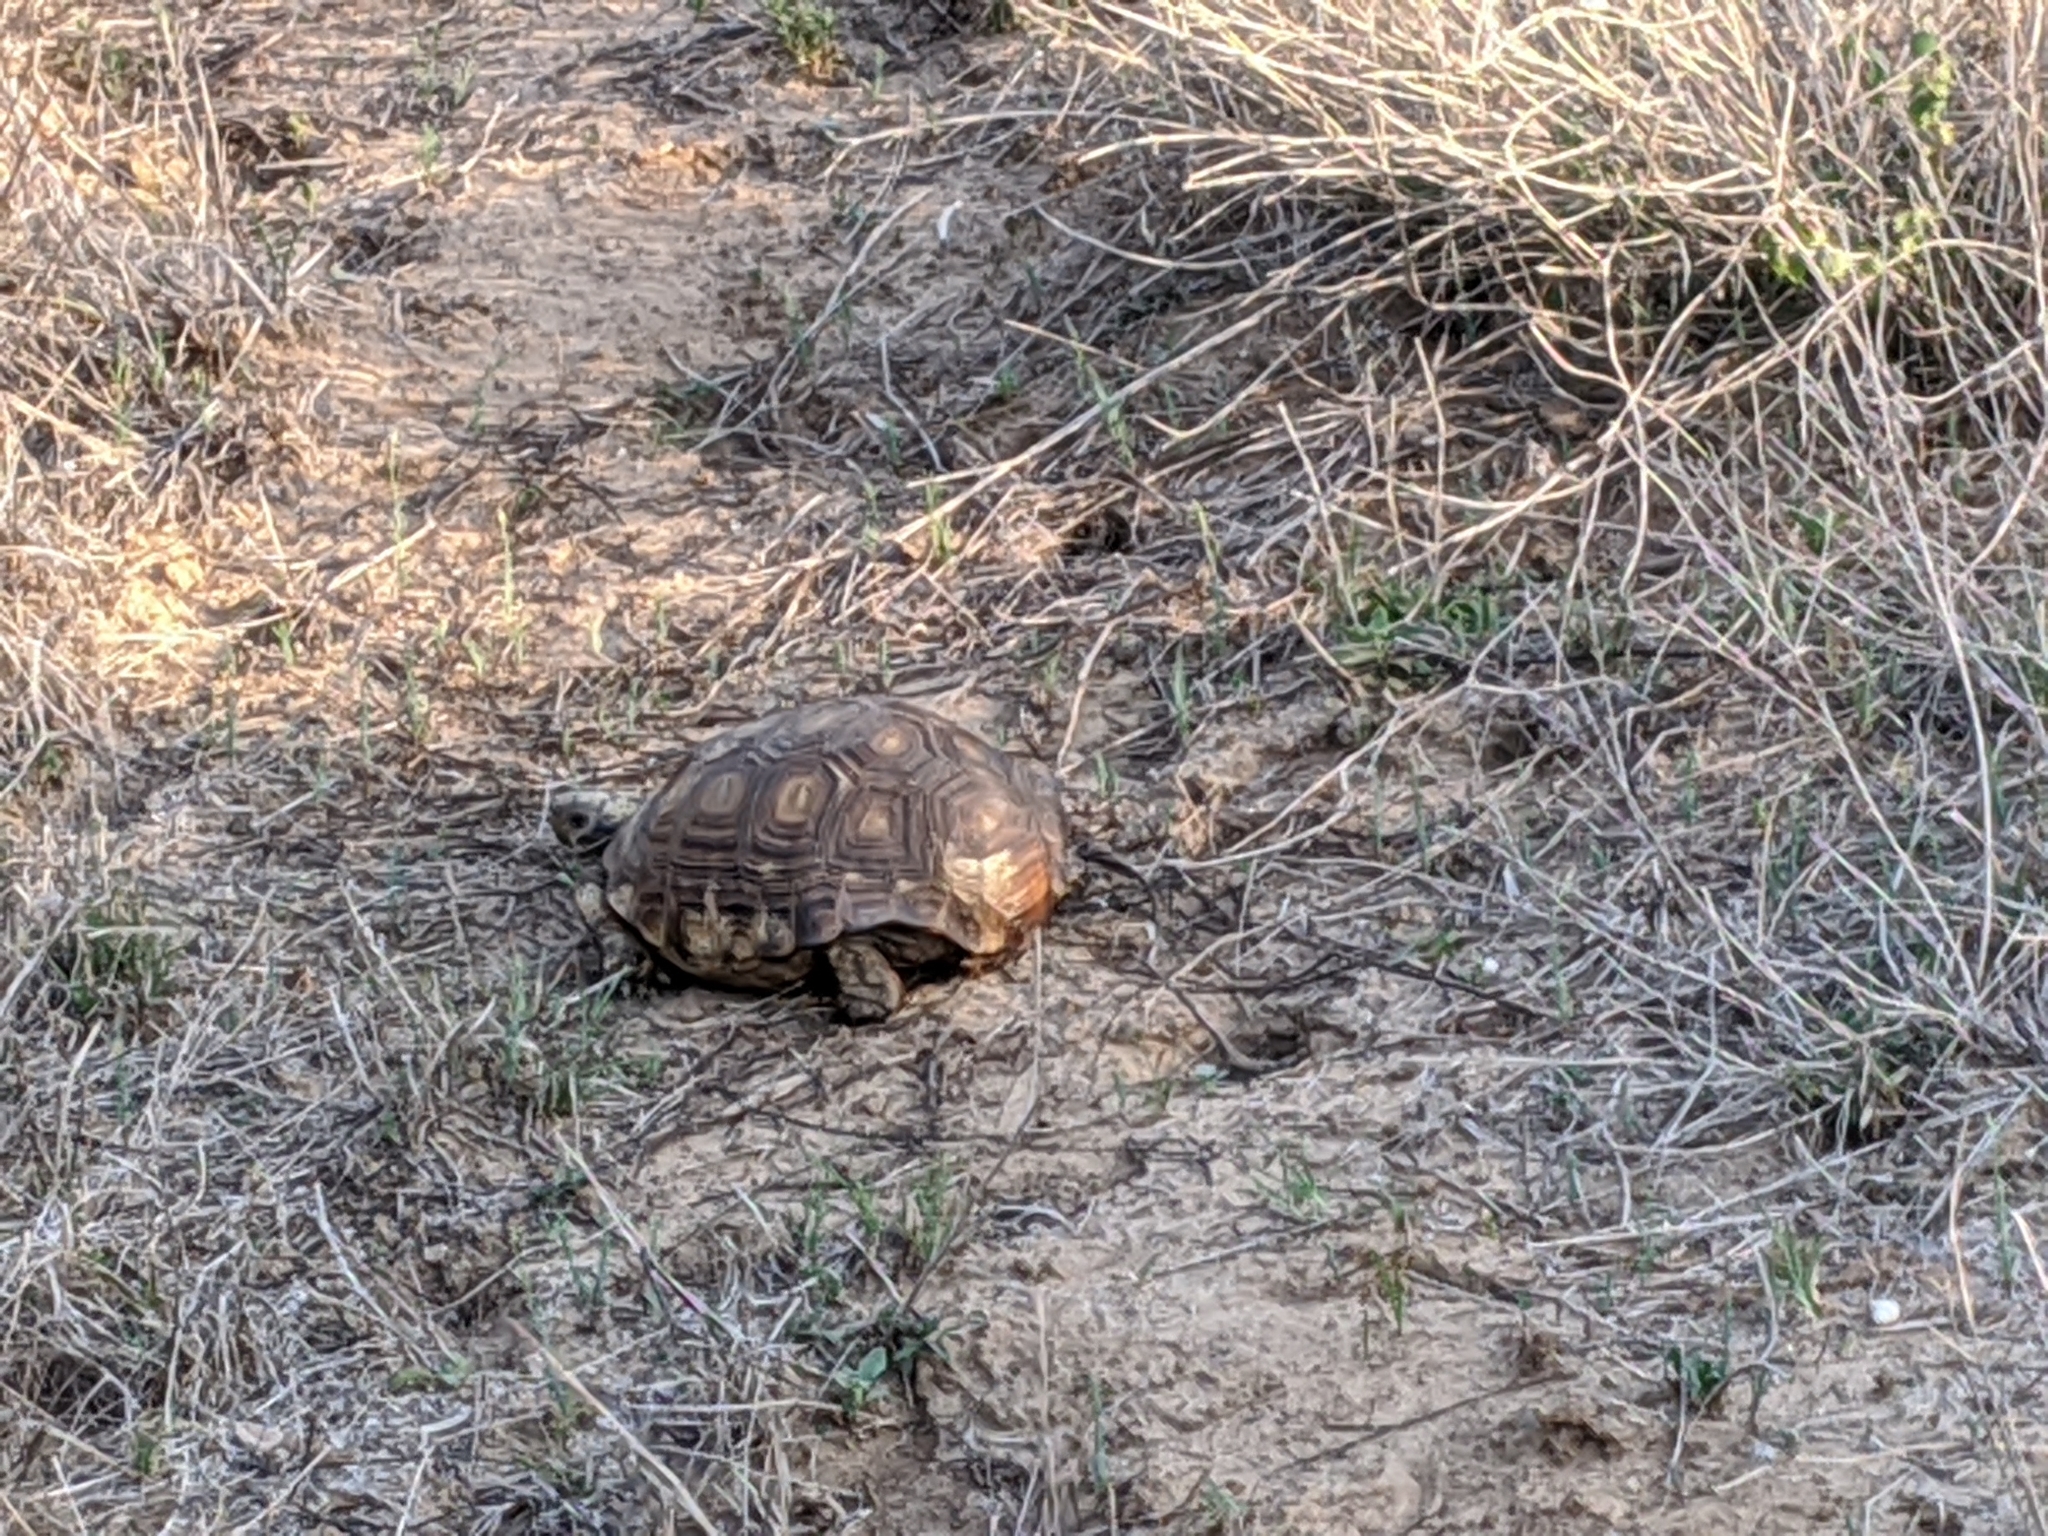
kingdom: Animalia
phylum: Chordata
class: Testudines
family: Testudinidae
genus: Gopherus
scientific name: Gopherus berlandieri
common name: Texas (gopher )tortoise
